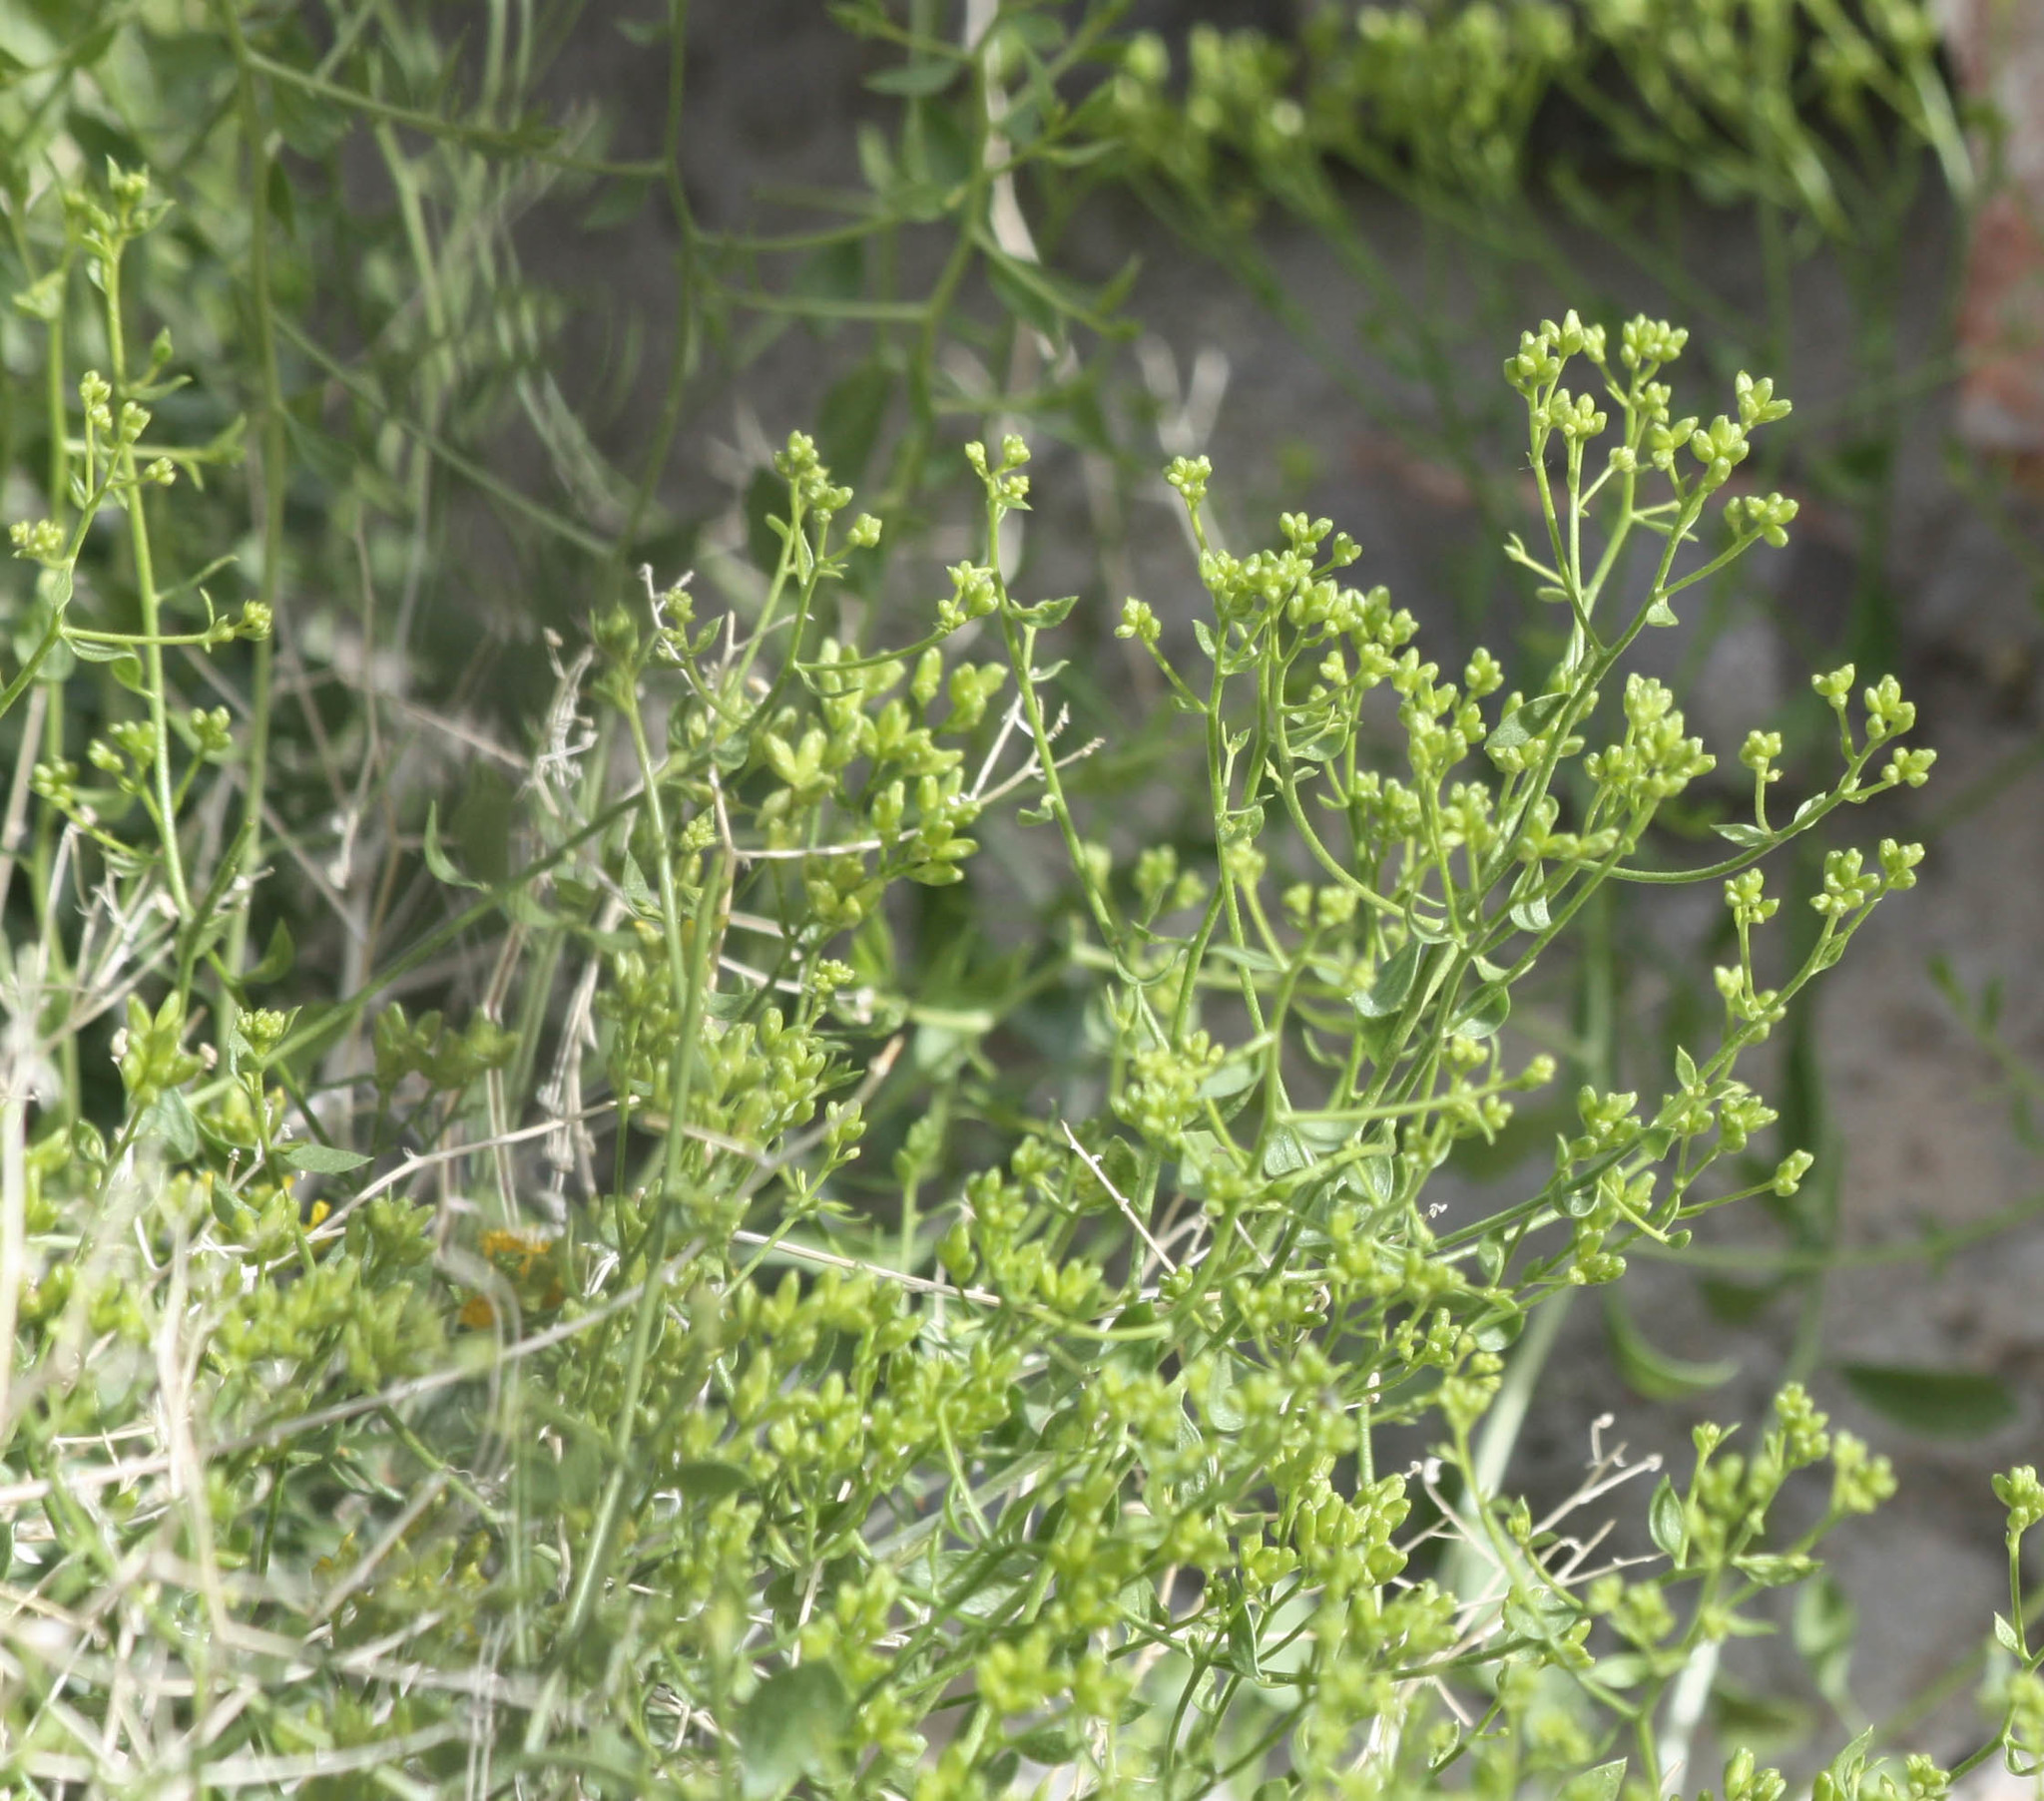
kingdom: Plantae
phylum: Tracheophyta
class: Magnoliopsida
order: Asterales
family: Asteraceae
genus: Amphipappus
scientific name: Amphipappus fremontii
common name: Fremont's chaffbush
